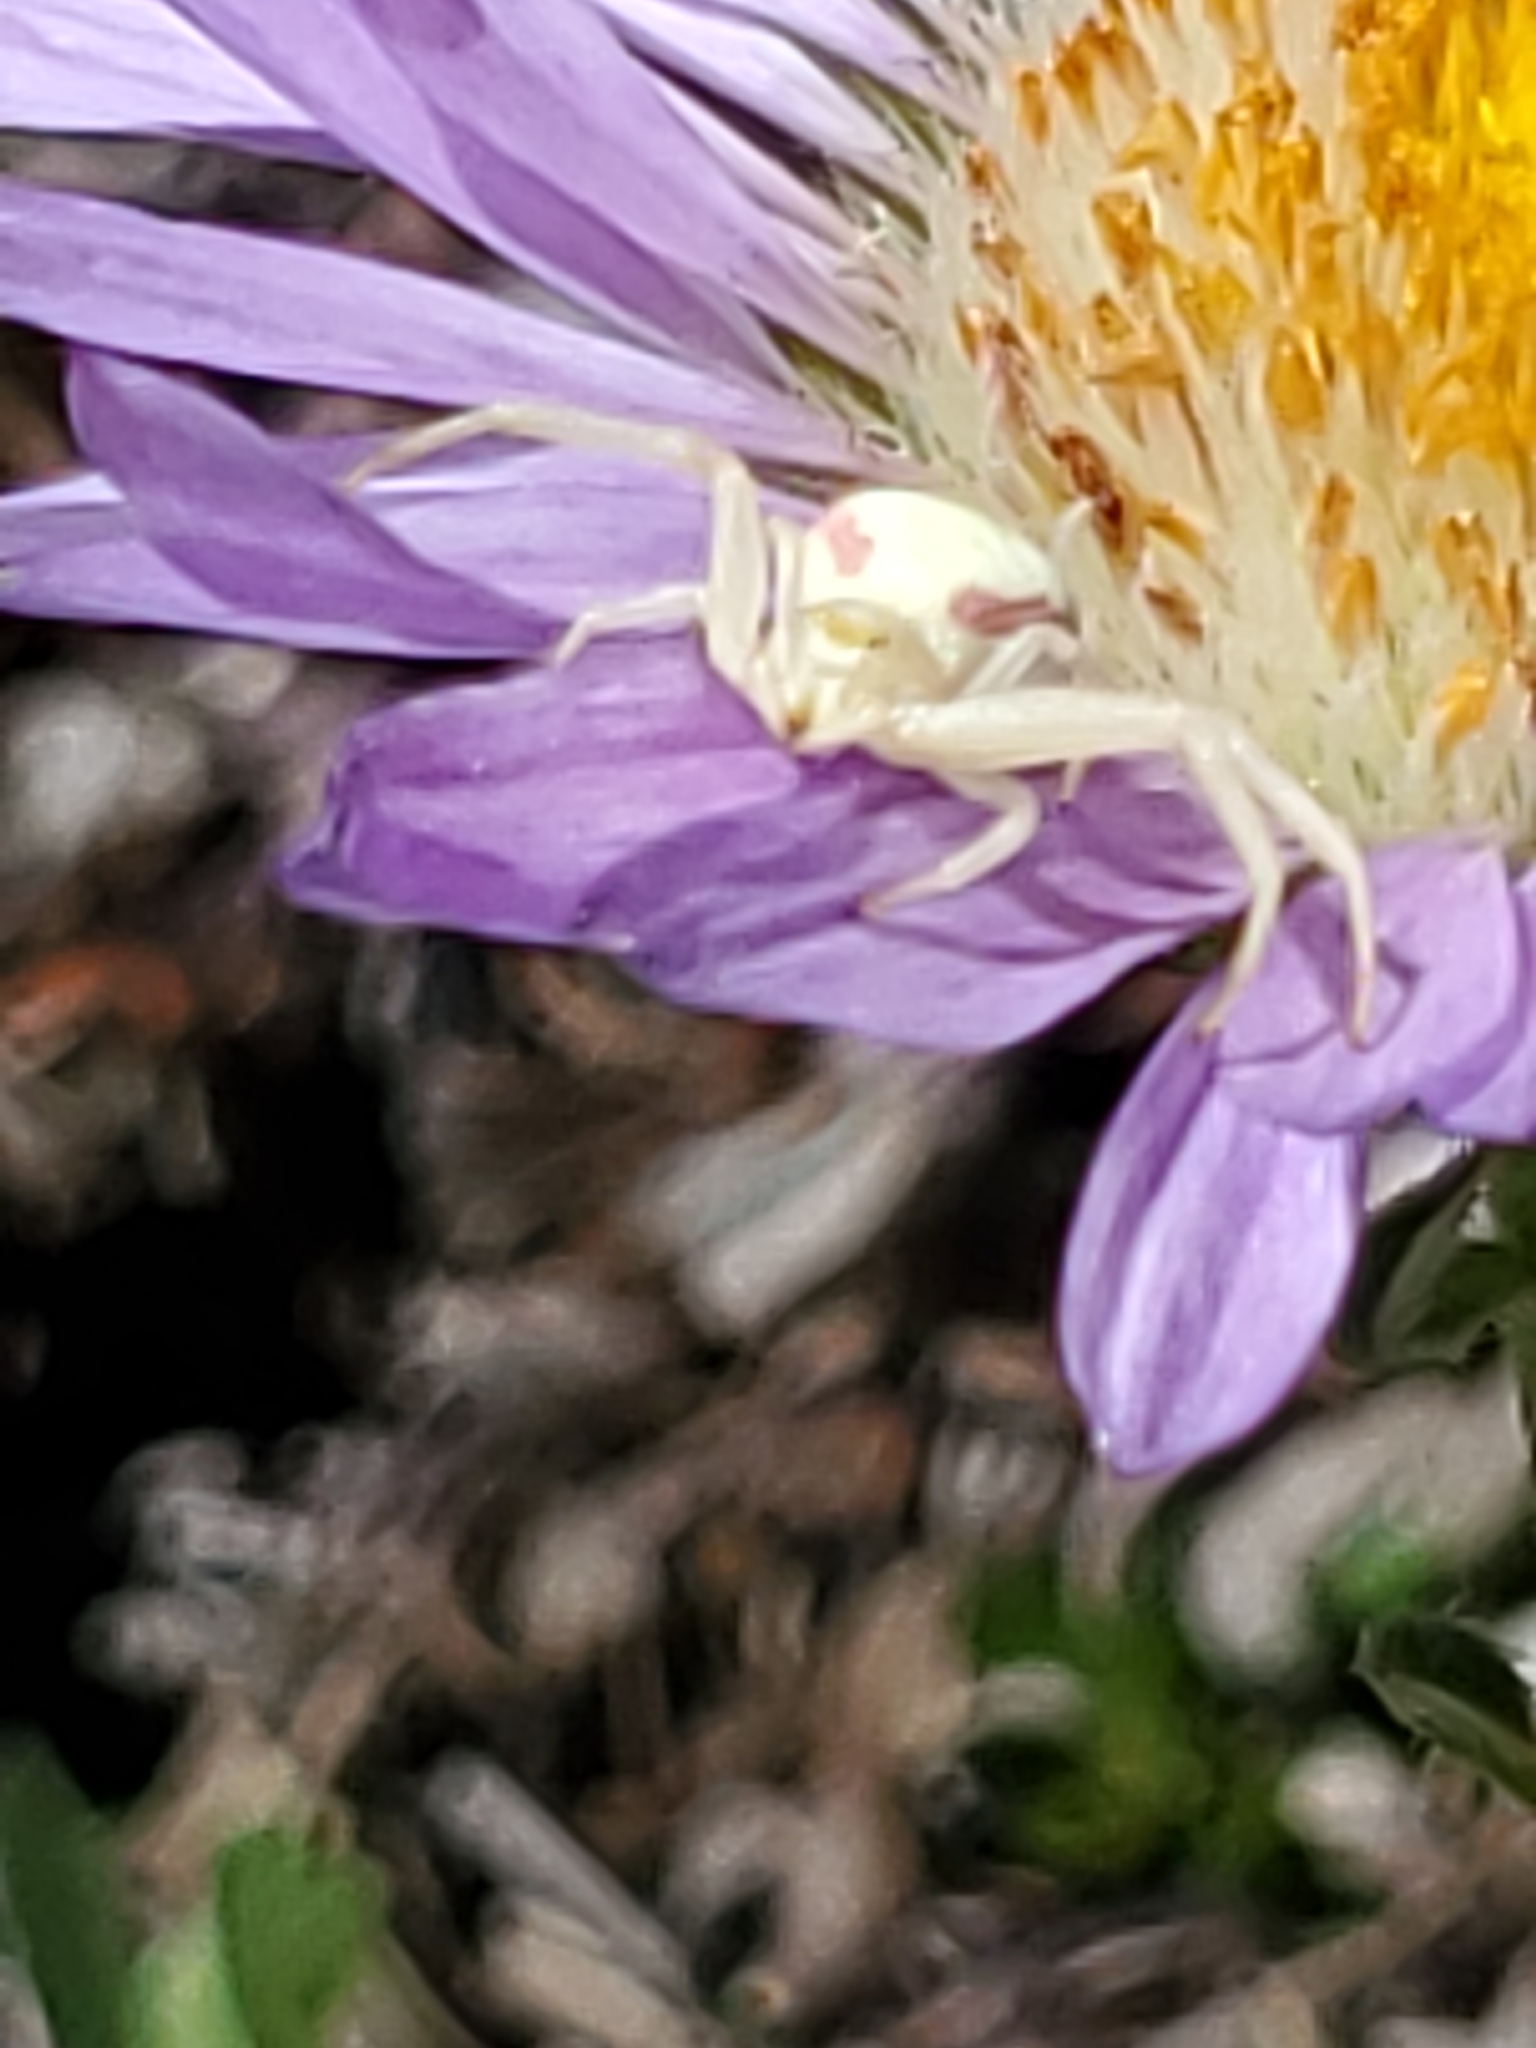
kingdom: Animalia
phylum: Arthropoda
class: Arachnida
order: Araneae
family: Thomisidae
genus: Misumena
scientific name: Misumena vatia
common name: Goldenrod crab spider
